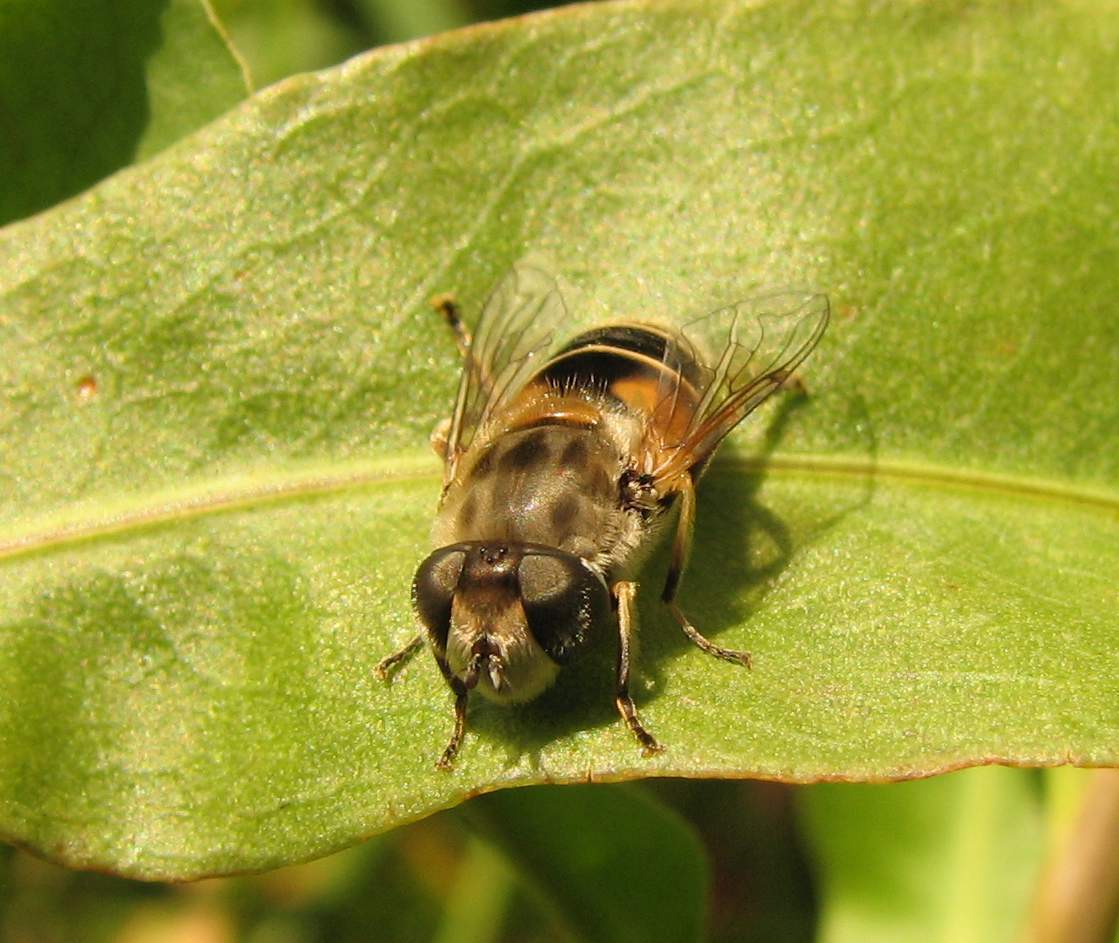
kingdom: Animalia
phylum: Arthropoda
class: Insecta
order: Diptera
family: Syrphidae
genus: Eristalis
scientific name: Eristalis arbustorum
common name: Hover fly
